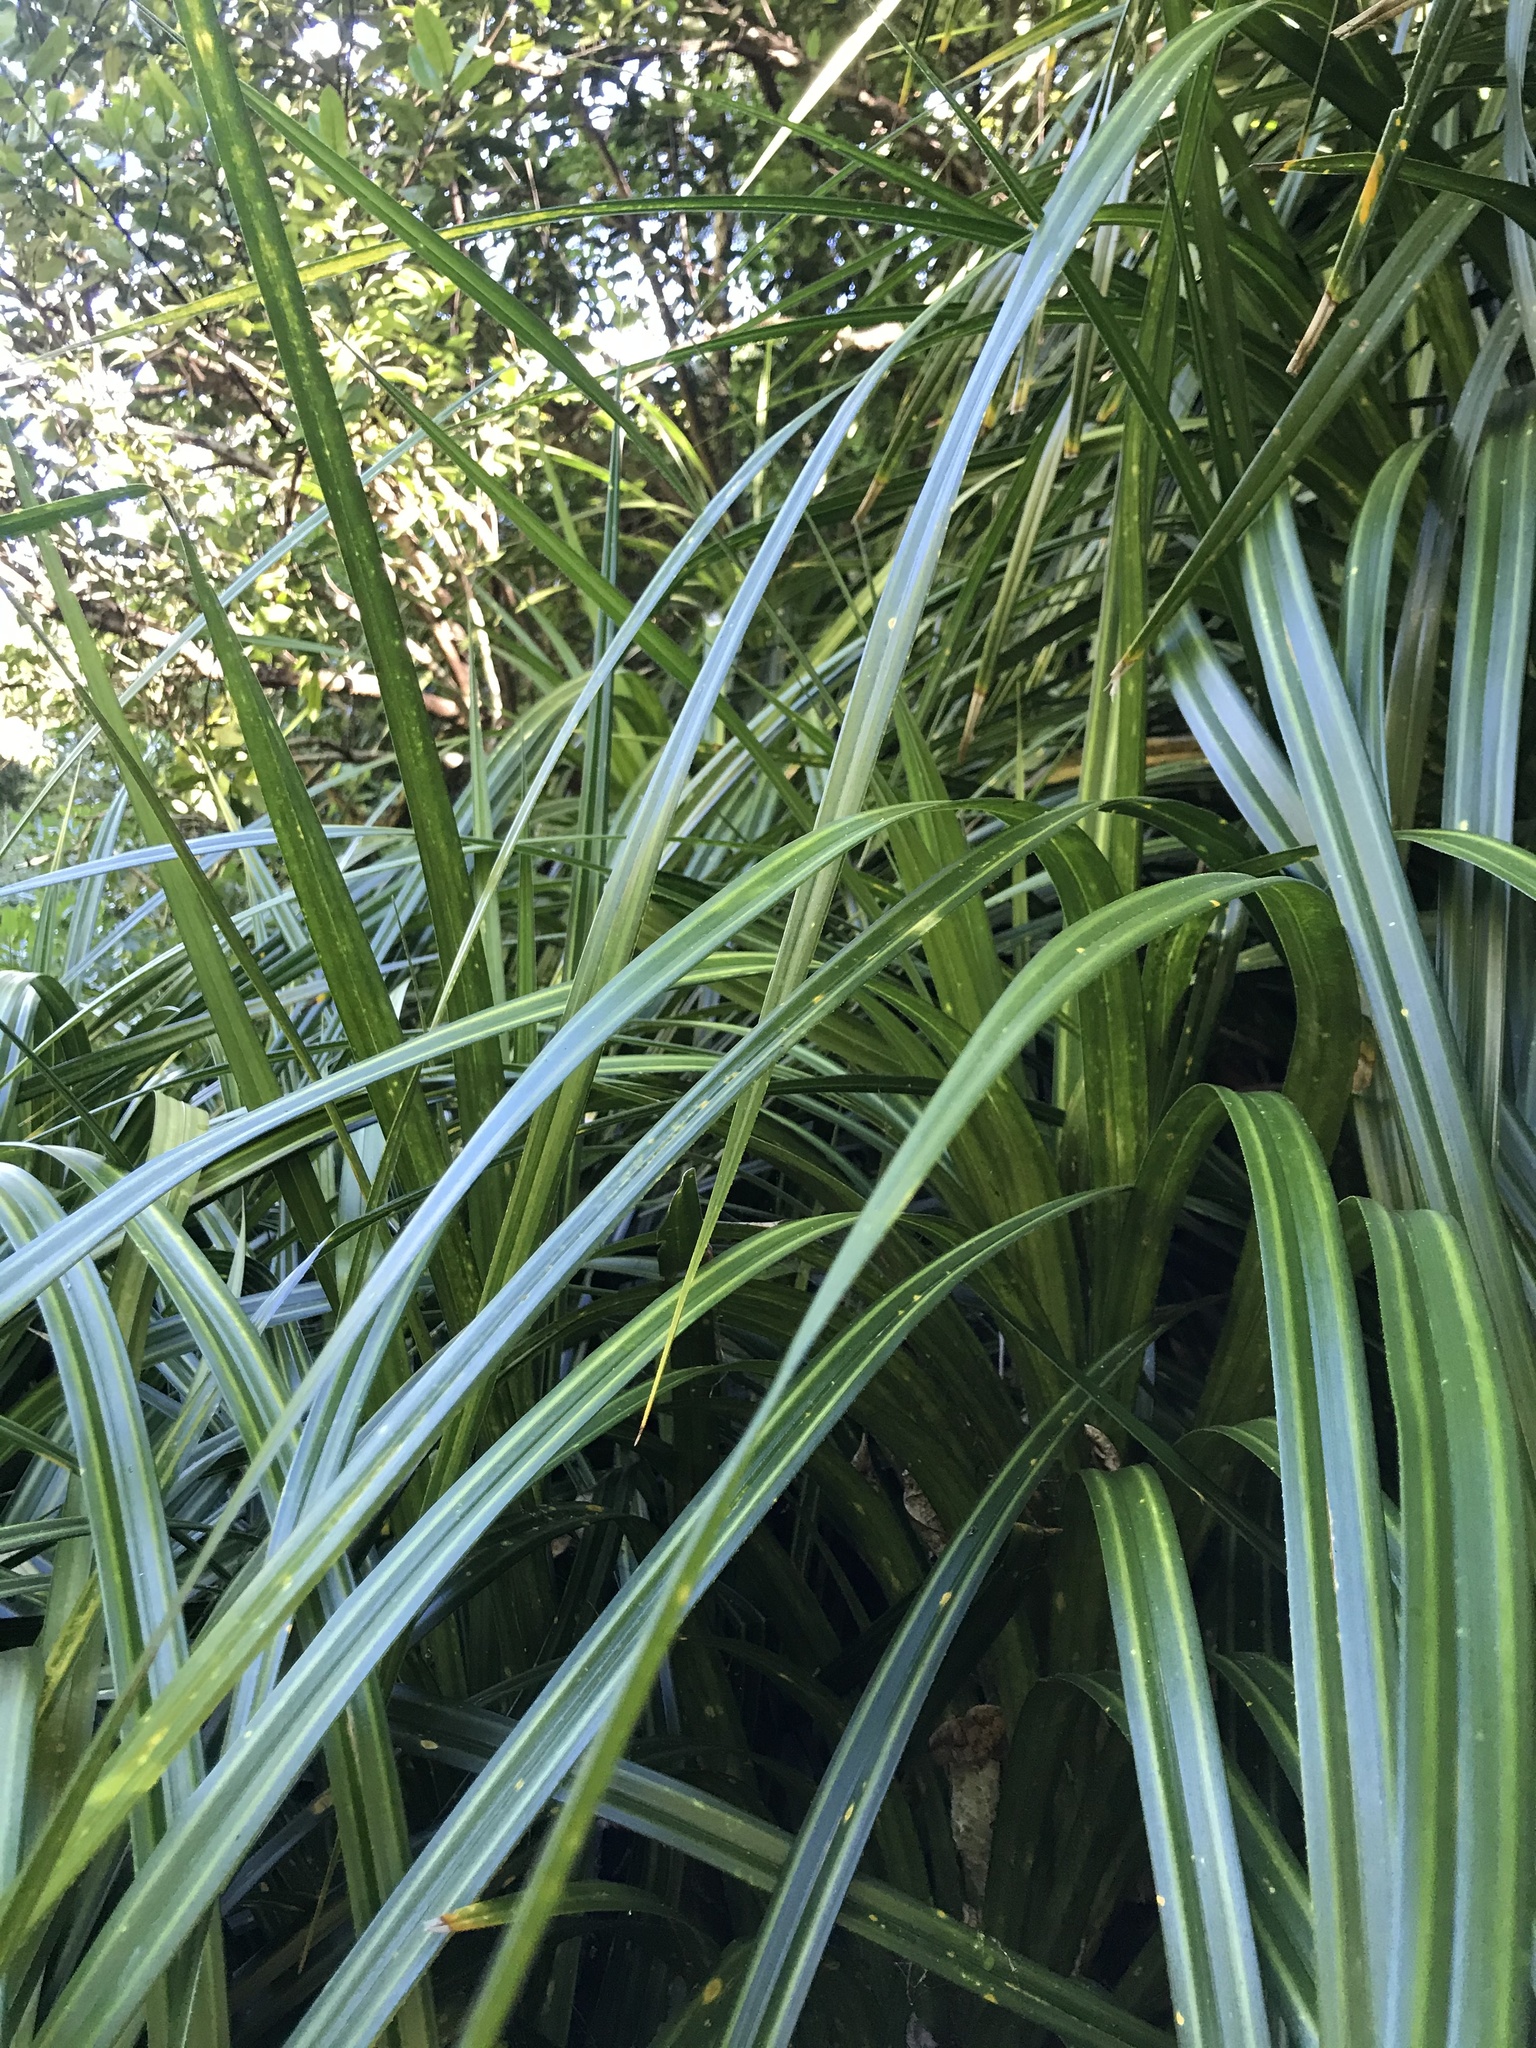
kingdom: Plantae
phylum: Tracheophyta
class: Liliopsida
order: Pandanales
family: Pandanaceae
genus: Freycinetia
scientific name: Freycinetia banksii
